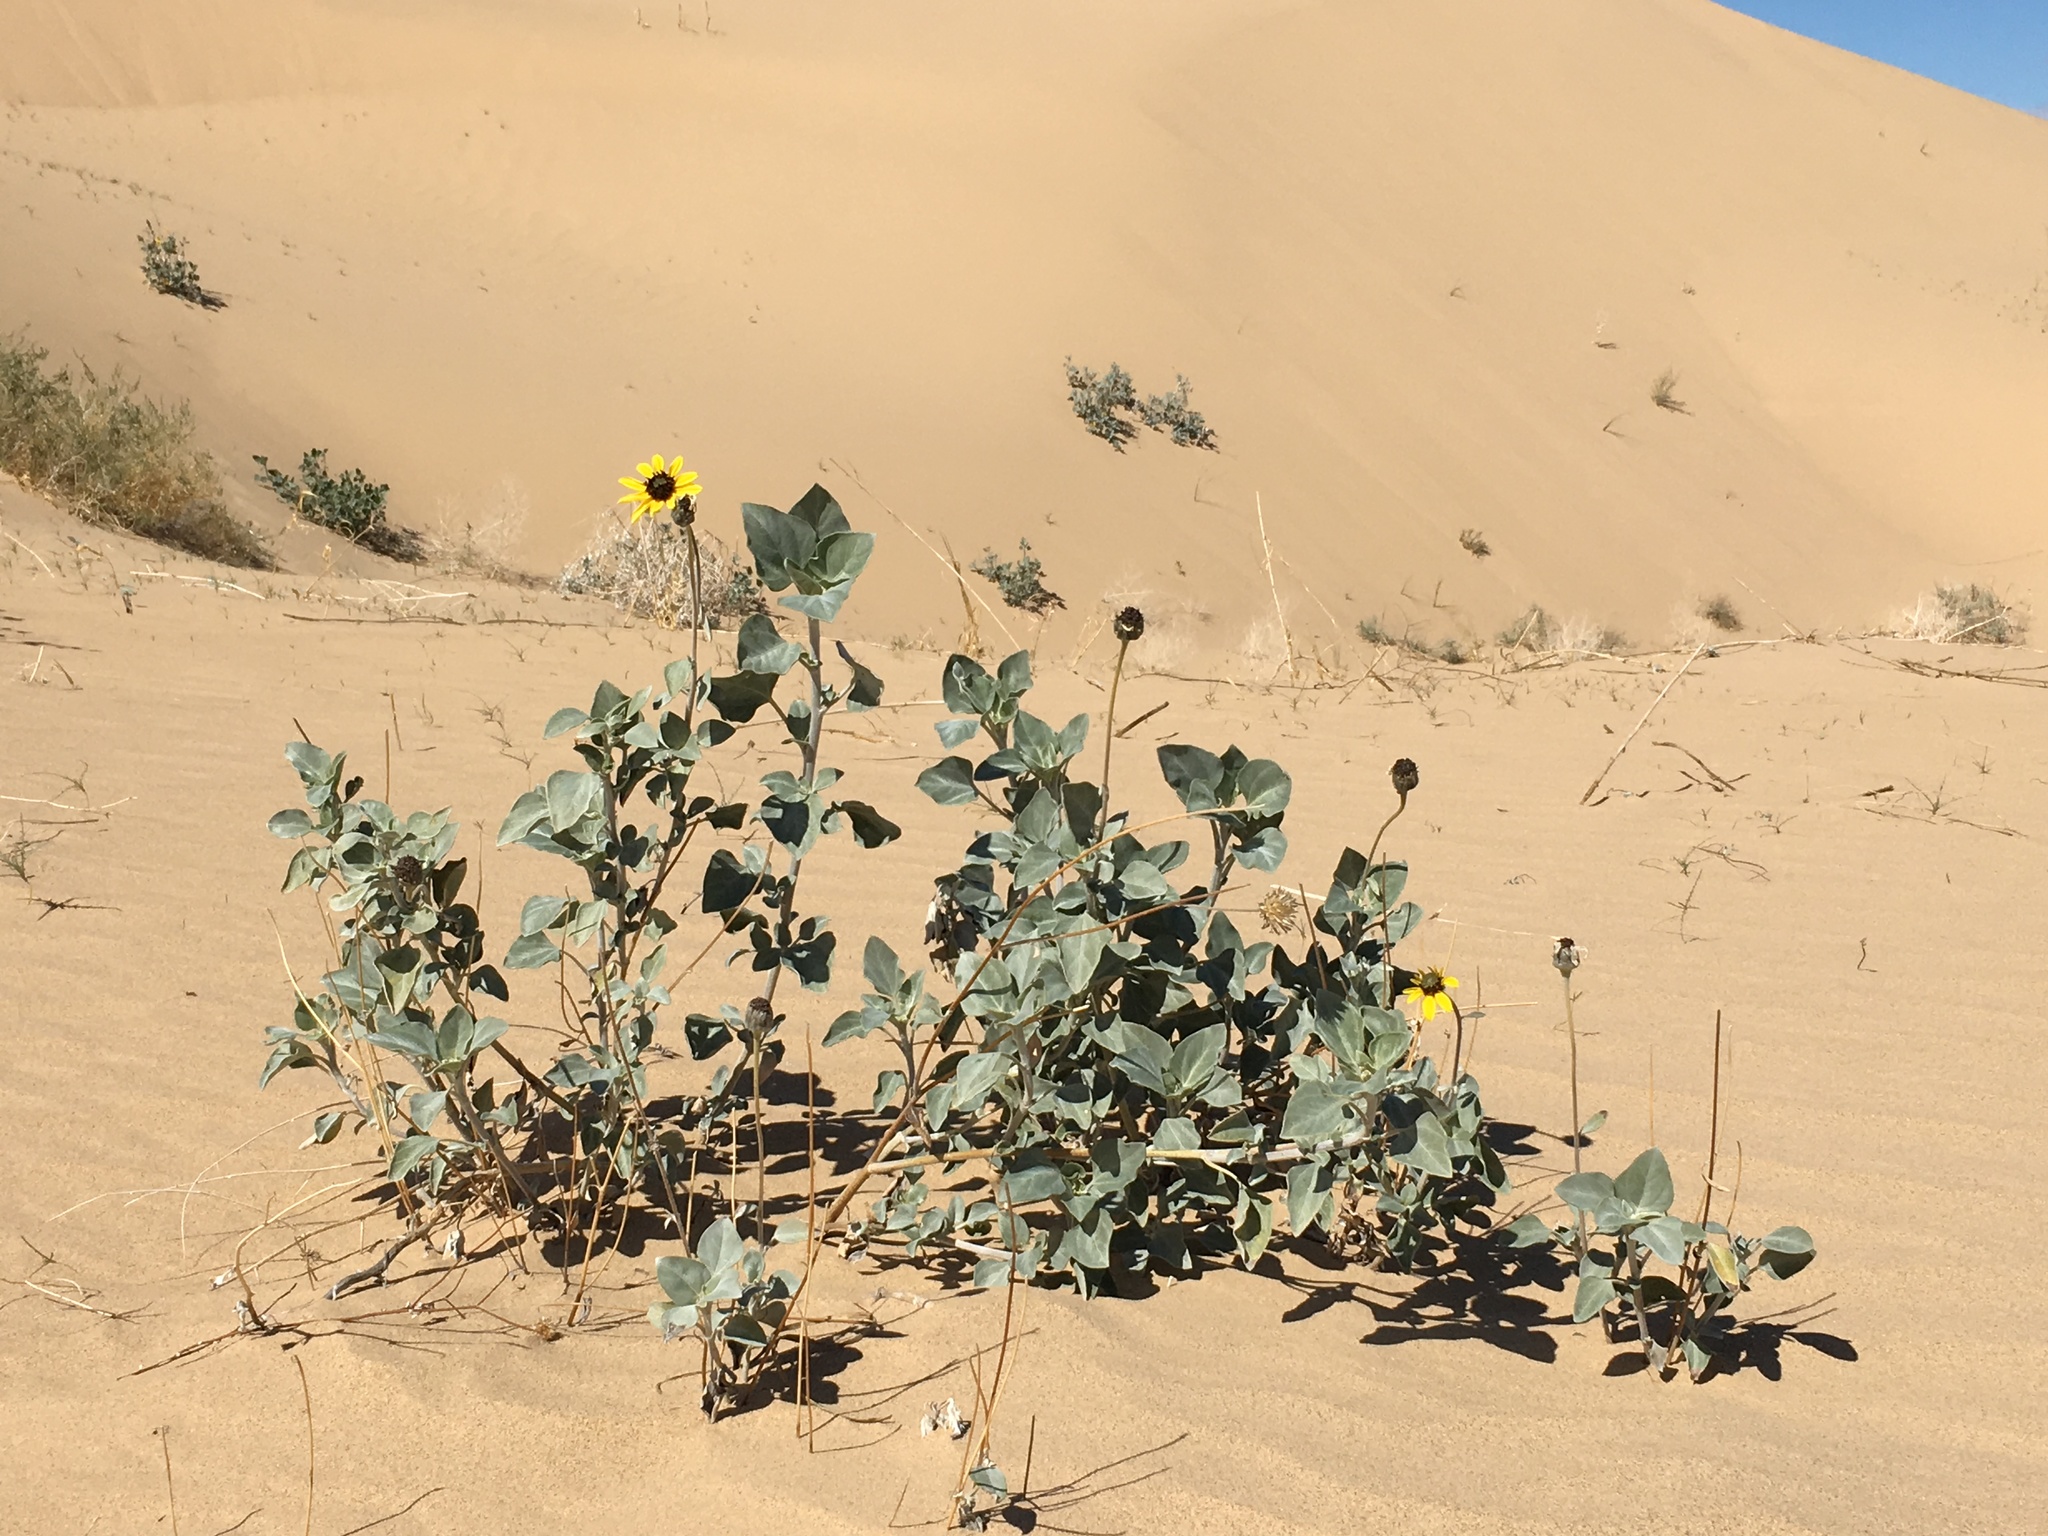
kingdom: Plantae
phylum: Tracheophyta
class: Magnoliopsida
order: Asterales
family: Asteraceae
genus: Helianthus
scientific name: Helianthus niveus
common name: Snowy sunflower
